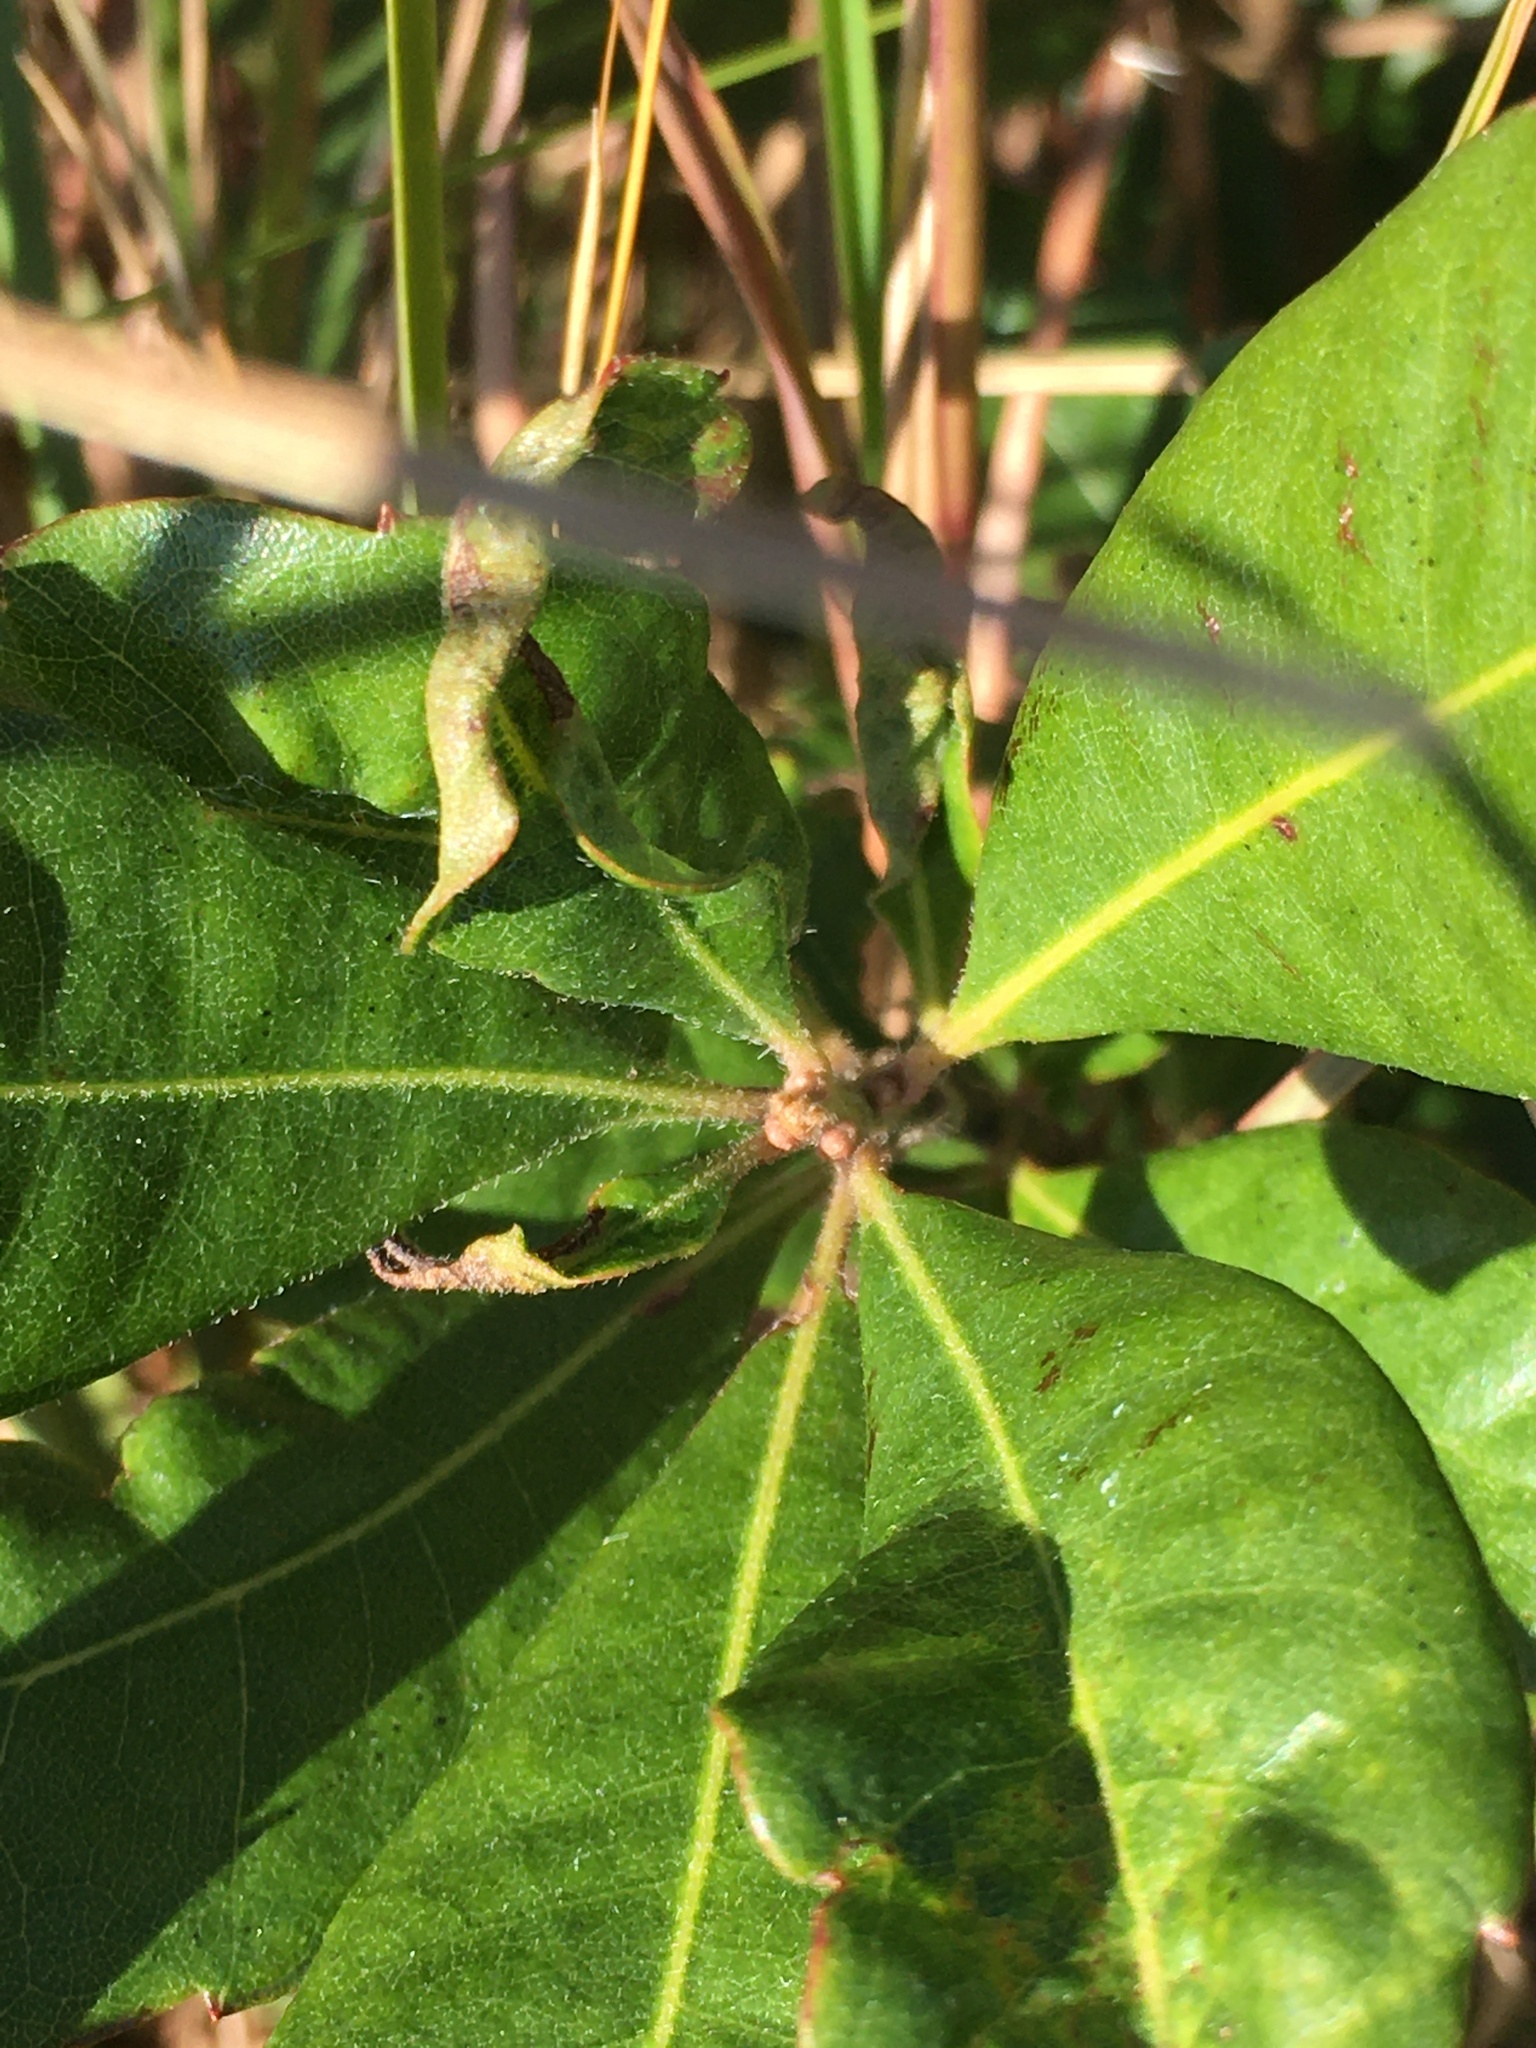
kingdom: Plantae
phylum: Tracheophyta
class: Magnoliopsida
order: Fagales
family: Myricaceae
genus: Morella
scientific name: Morella caroliniensis
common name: Evergreen bayberry
